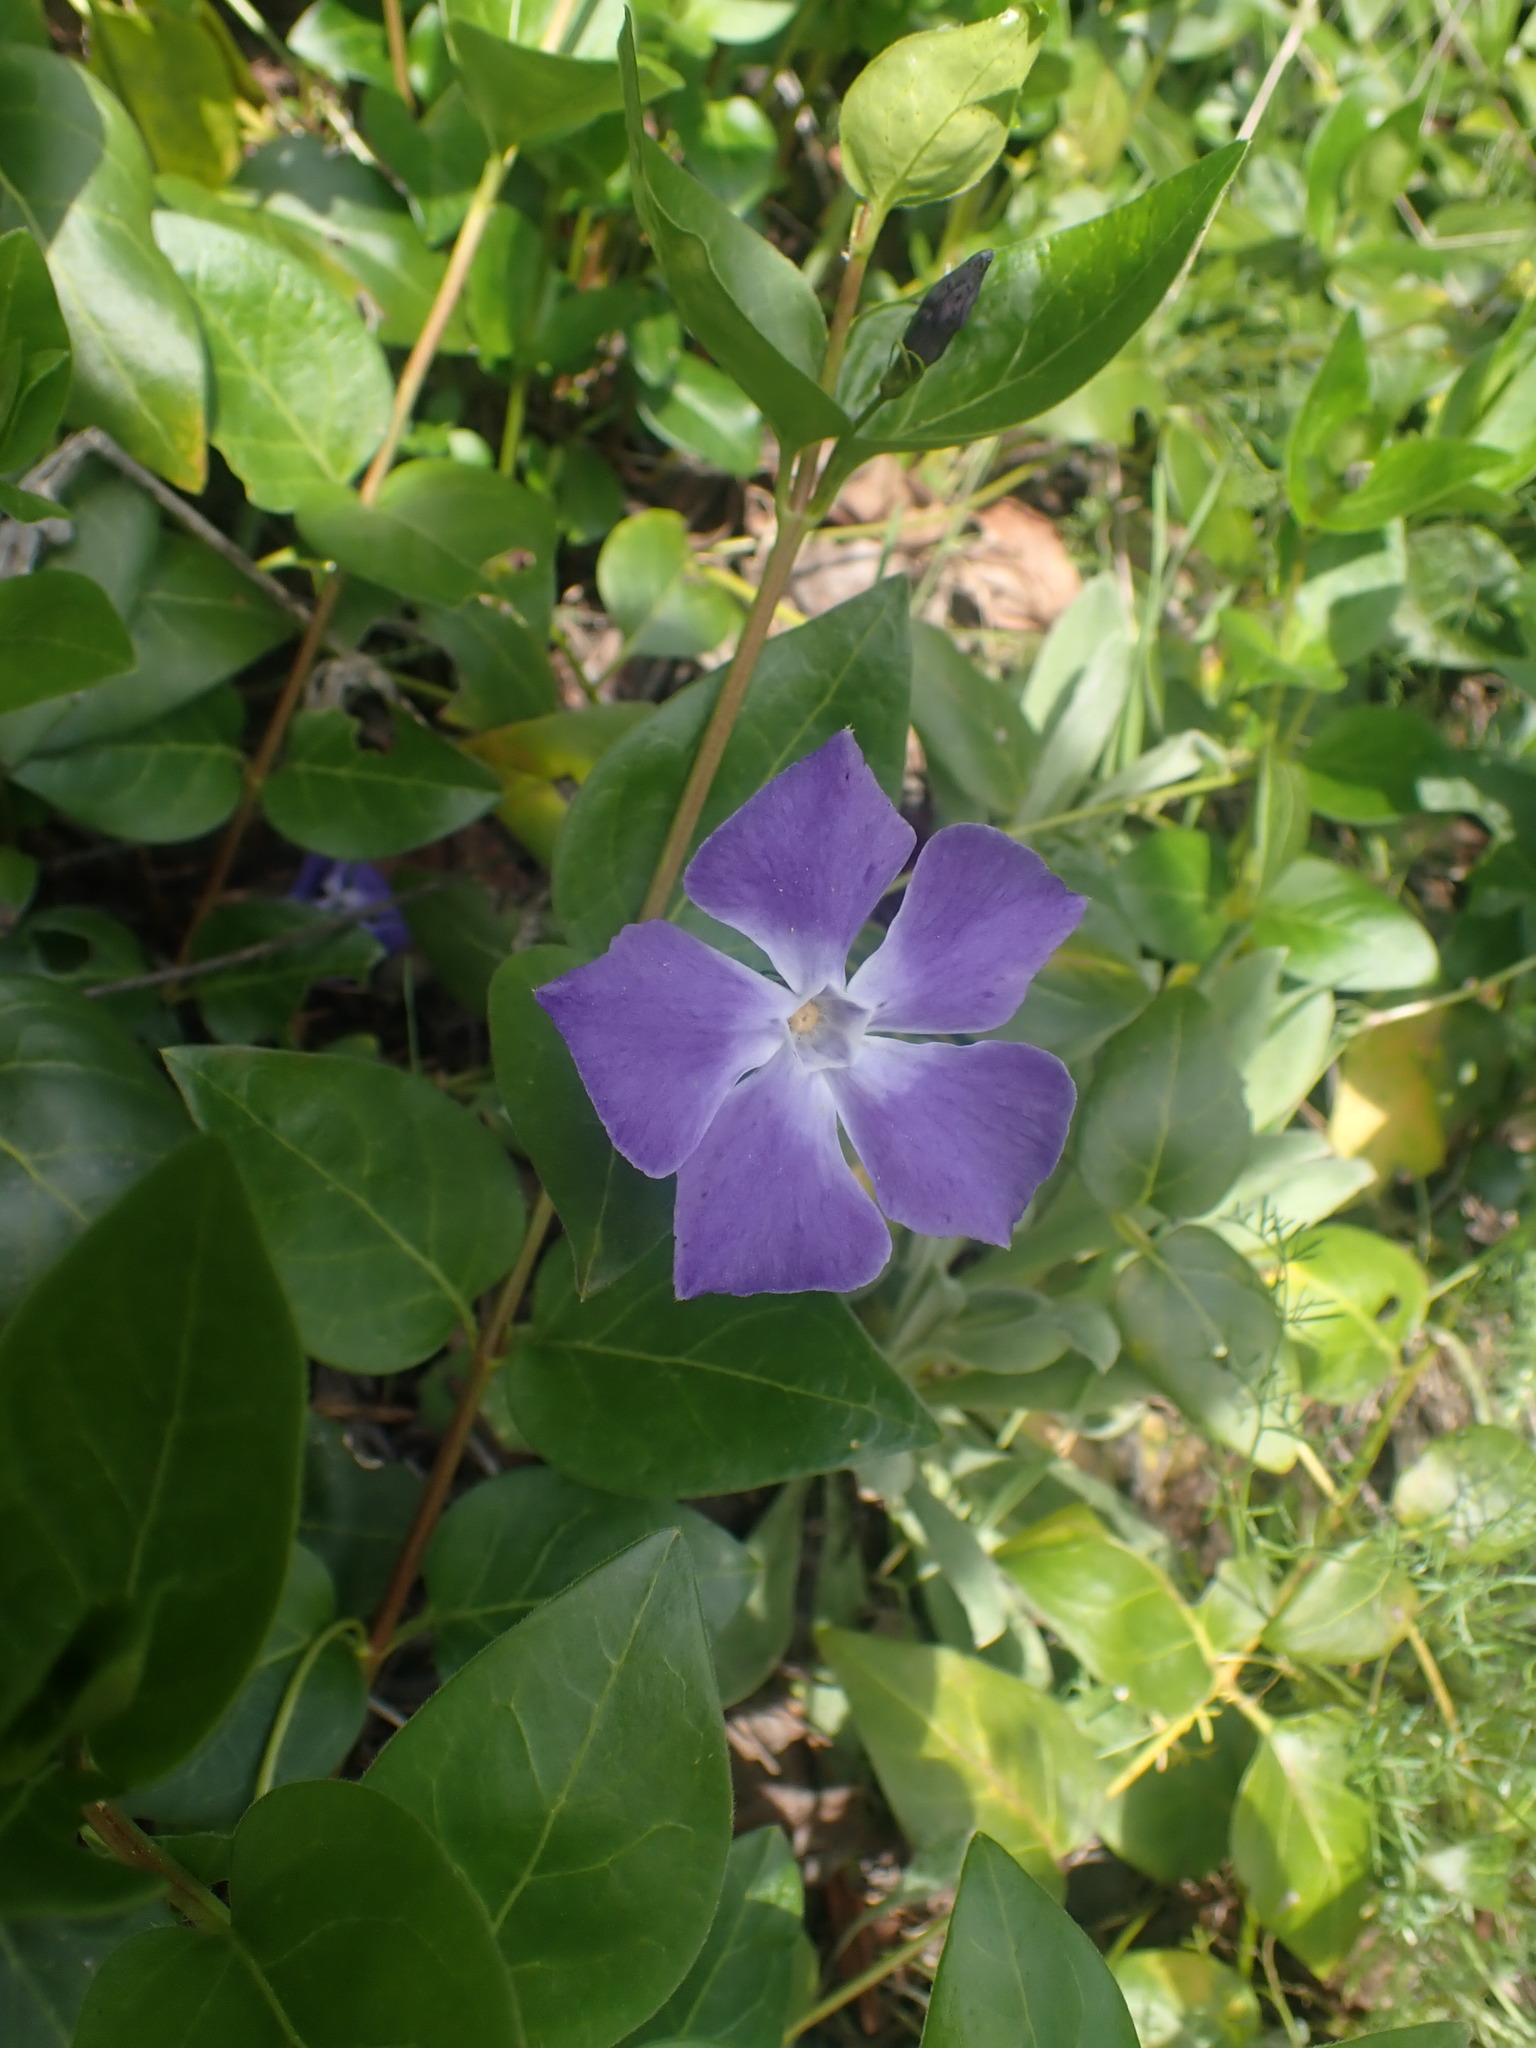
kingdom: Plantae
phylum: Tracheophyta
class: Magnoliopsida
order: Gentianales
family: Apocynaceae
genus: Vinca
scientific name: Vinca major
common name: Greater periwinkle
